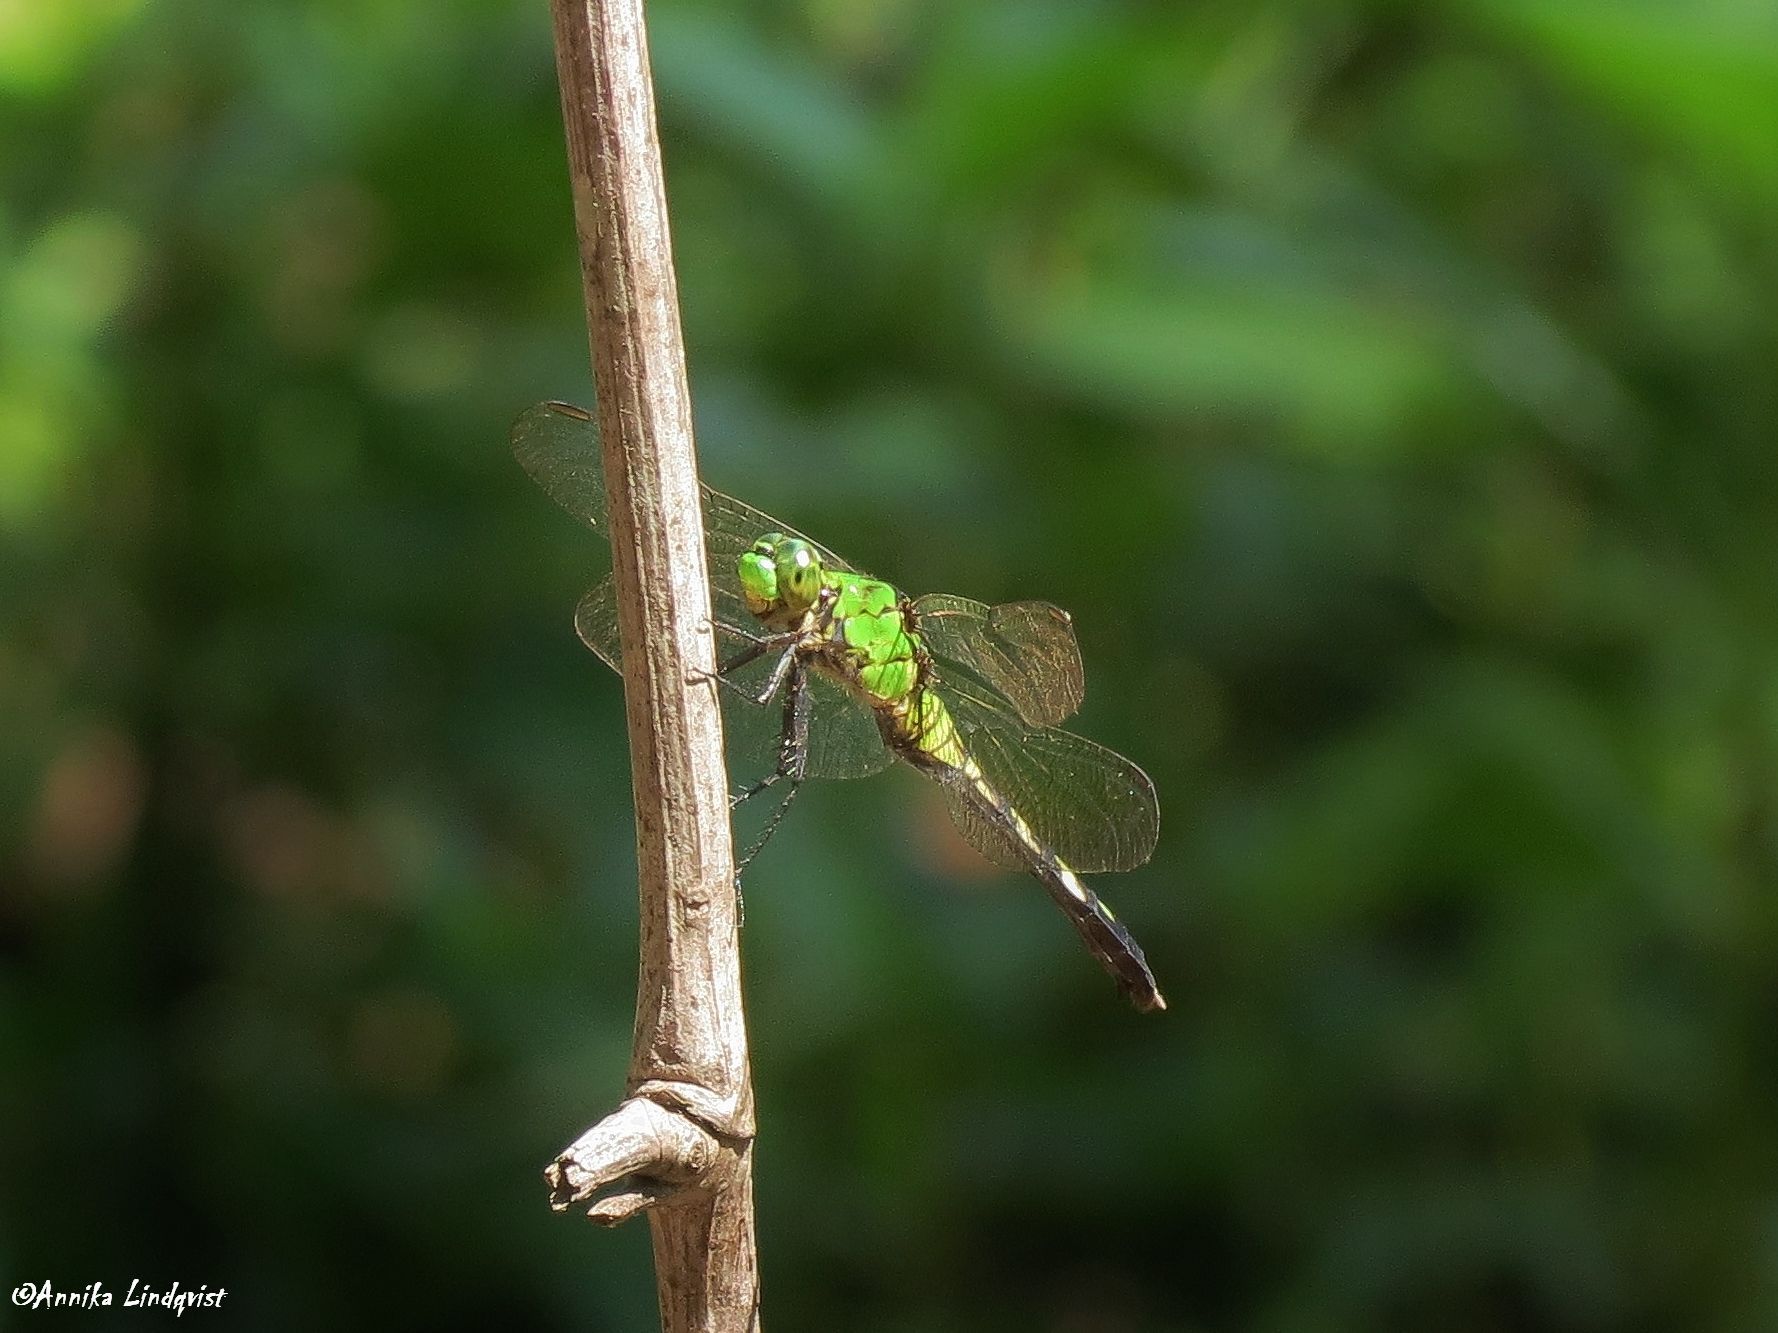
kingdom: Animalia
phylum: Arthropoda
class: Insecta
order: Odonata
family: Libellulidae
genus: Erythemis
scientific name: Erythemis simplicicollis
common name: Eastern pondhawk
